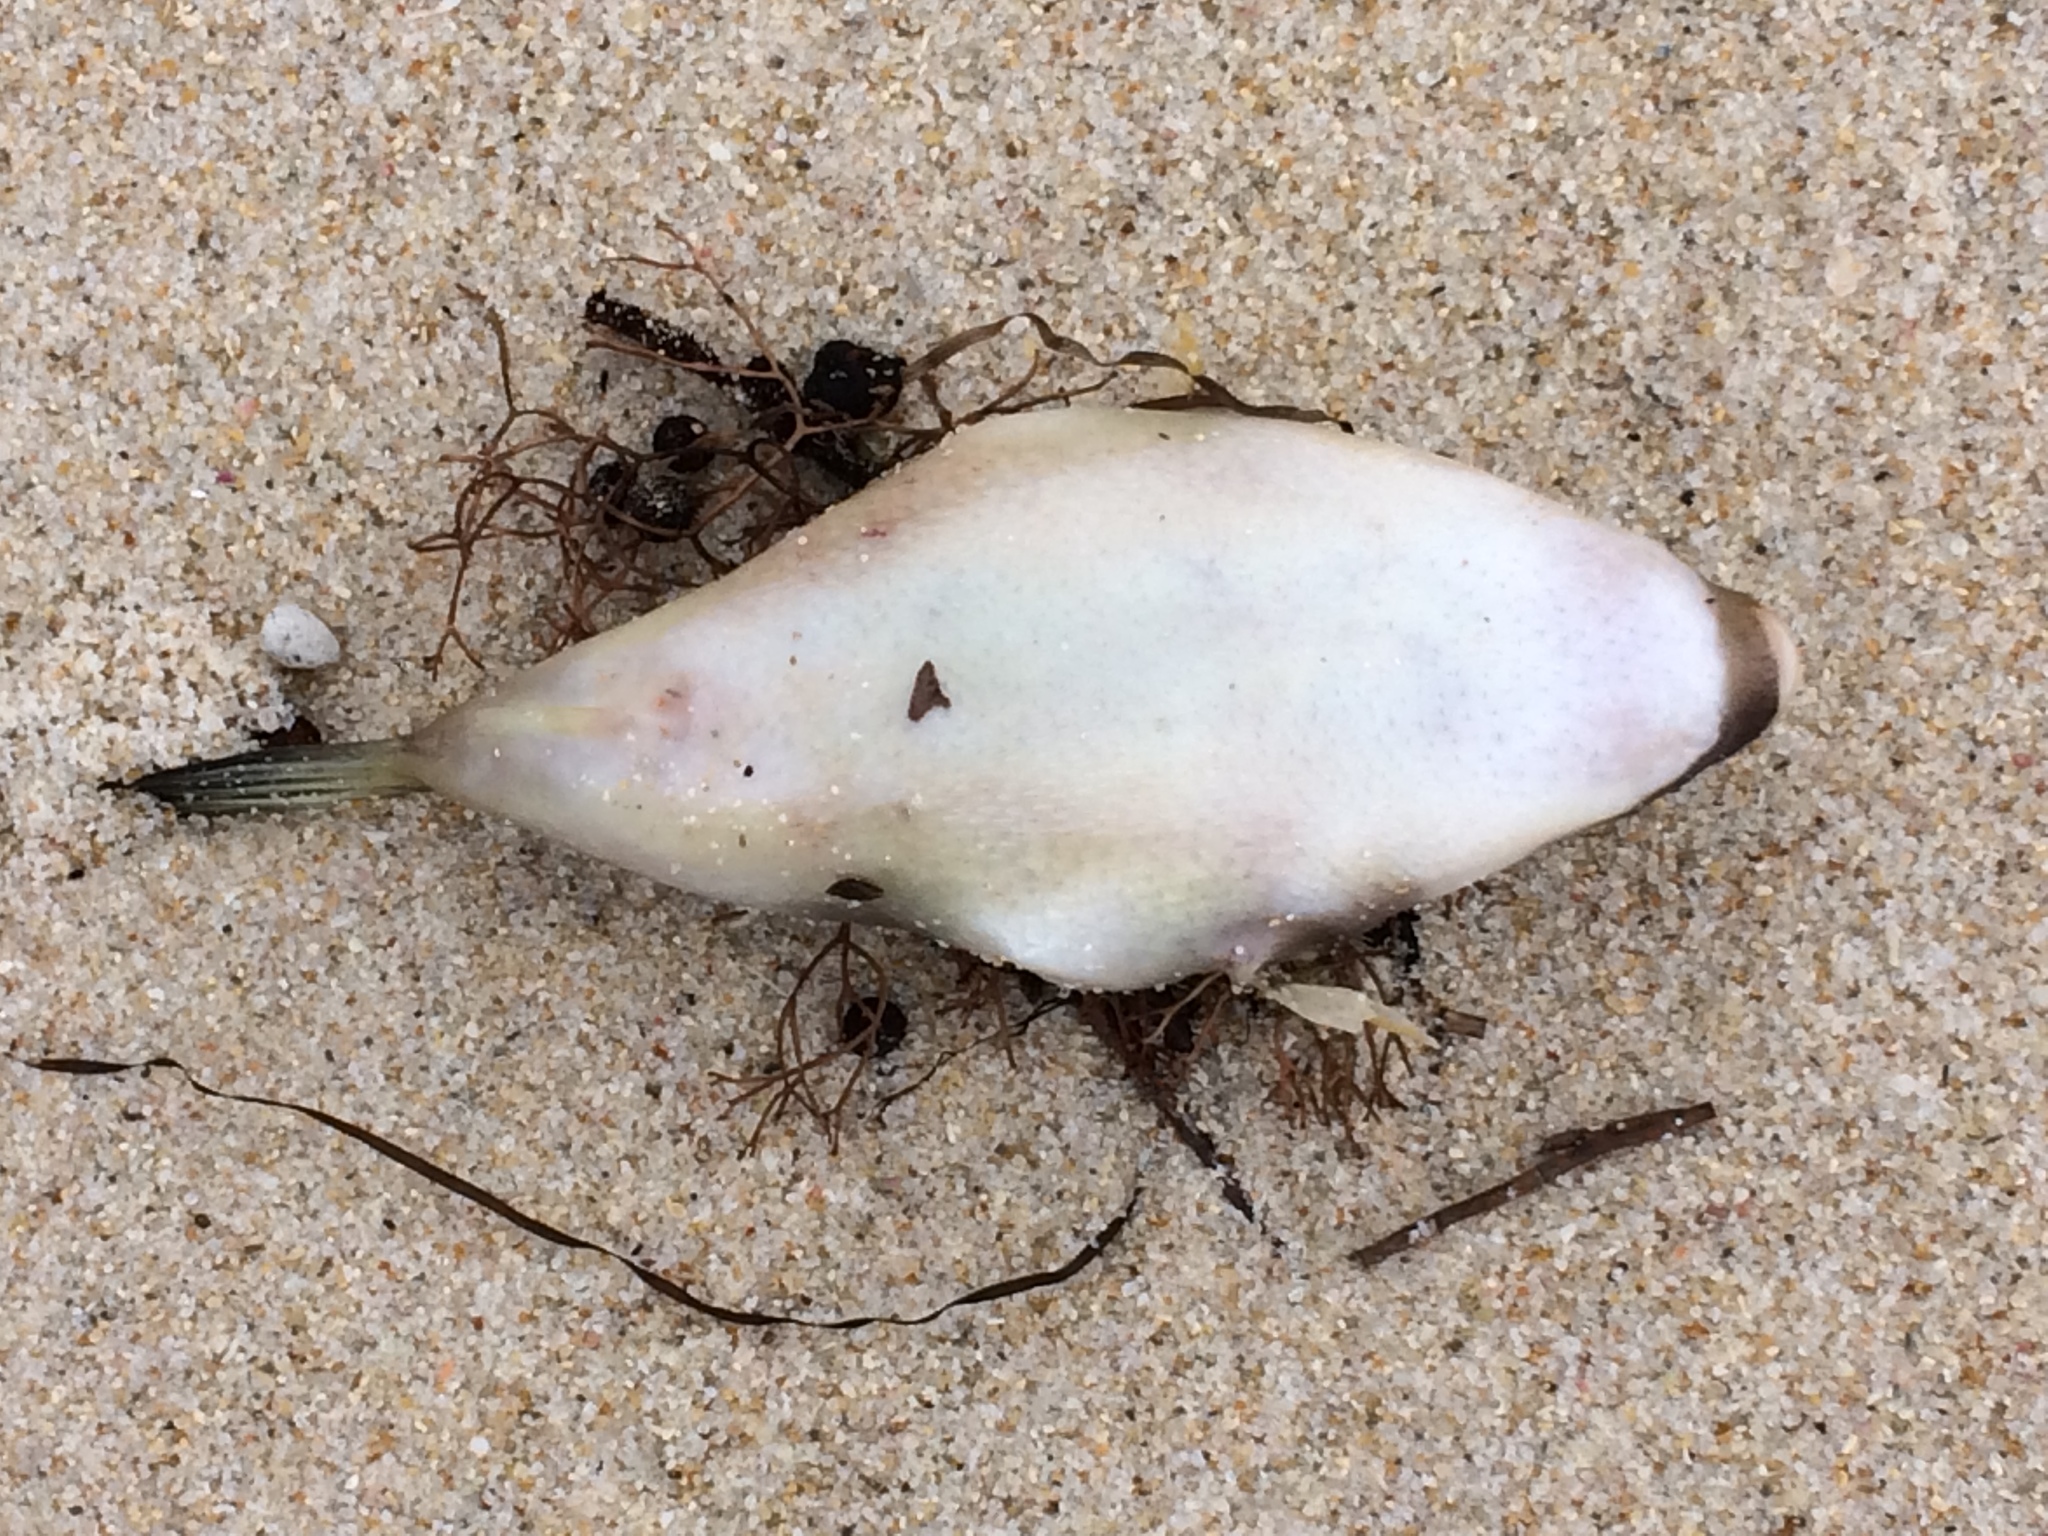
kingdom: Animalia
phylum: Chordata
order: Tetraodontiformes
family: Tetraodontidae
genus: Omegophora
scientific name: Omegophora armilla
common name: Ringed pufferfish
